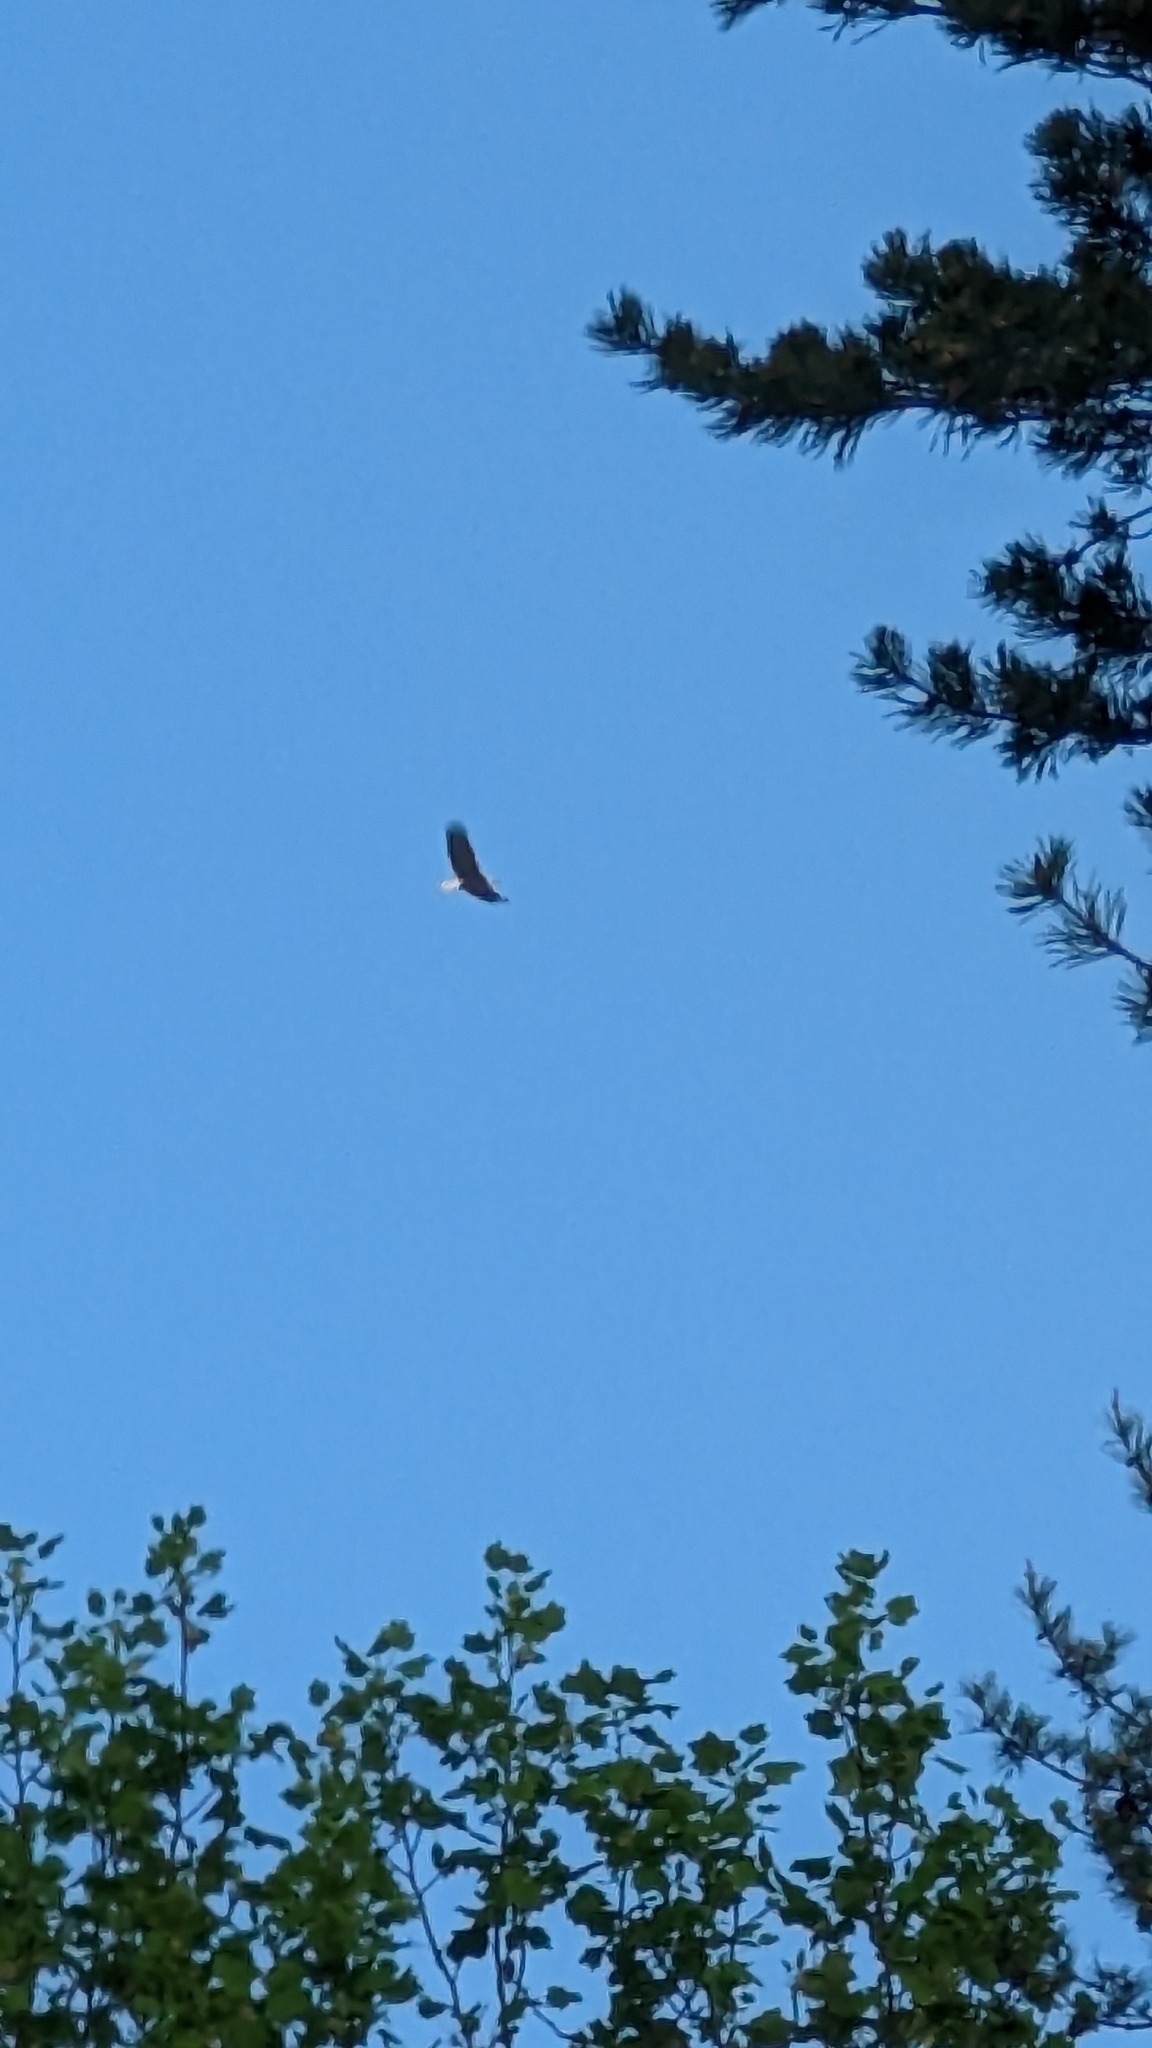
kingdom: Animalia
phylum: Chordata
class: Aves
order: Accipitriformes
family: Accipitridae
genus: Haliaeetus
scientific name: Haliaeetus leucocephalus
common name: Bald eagle
